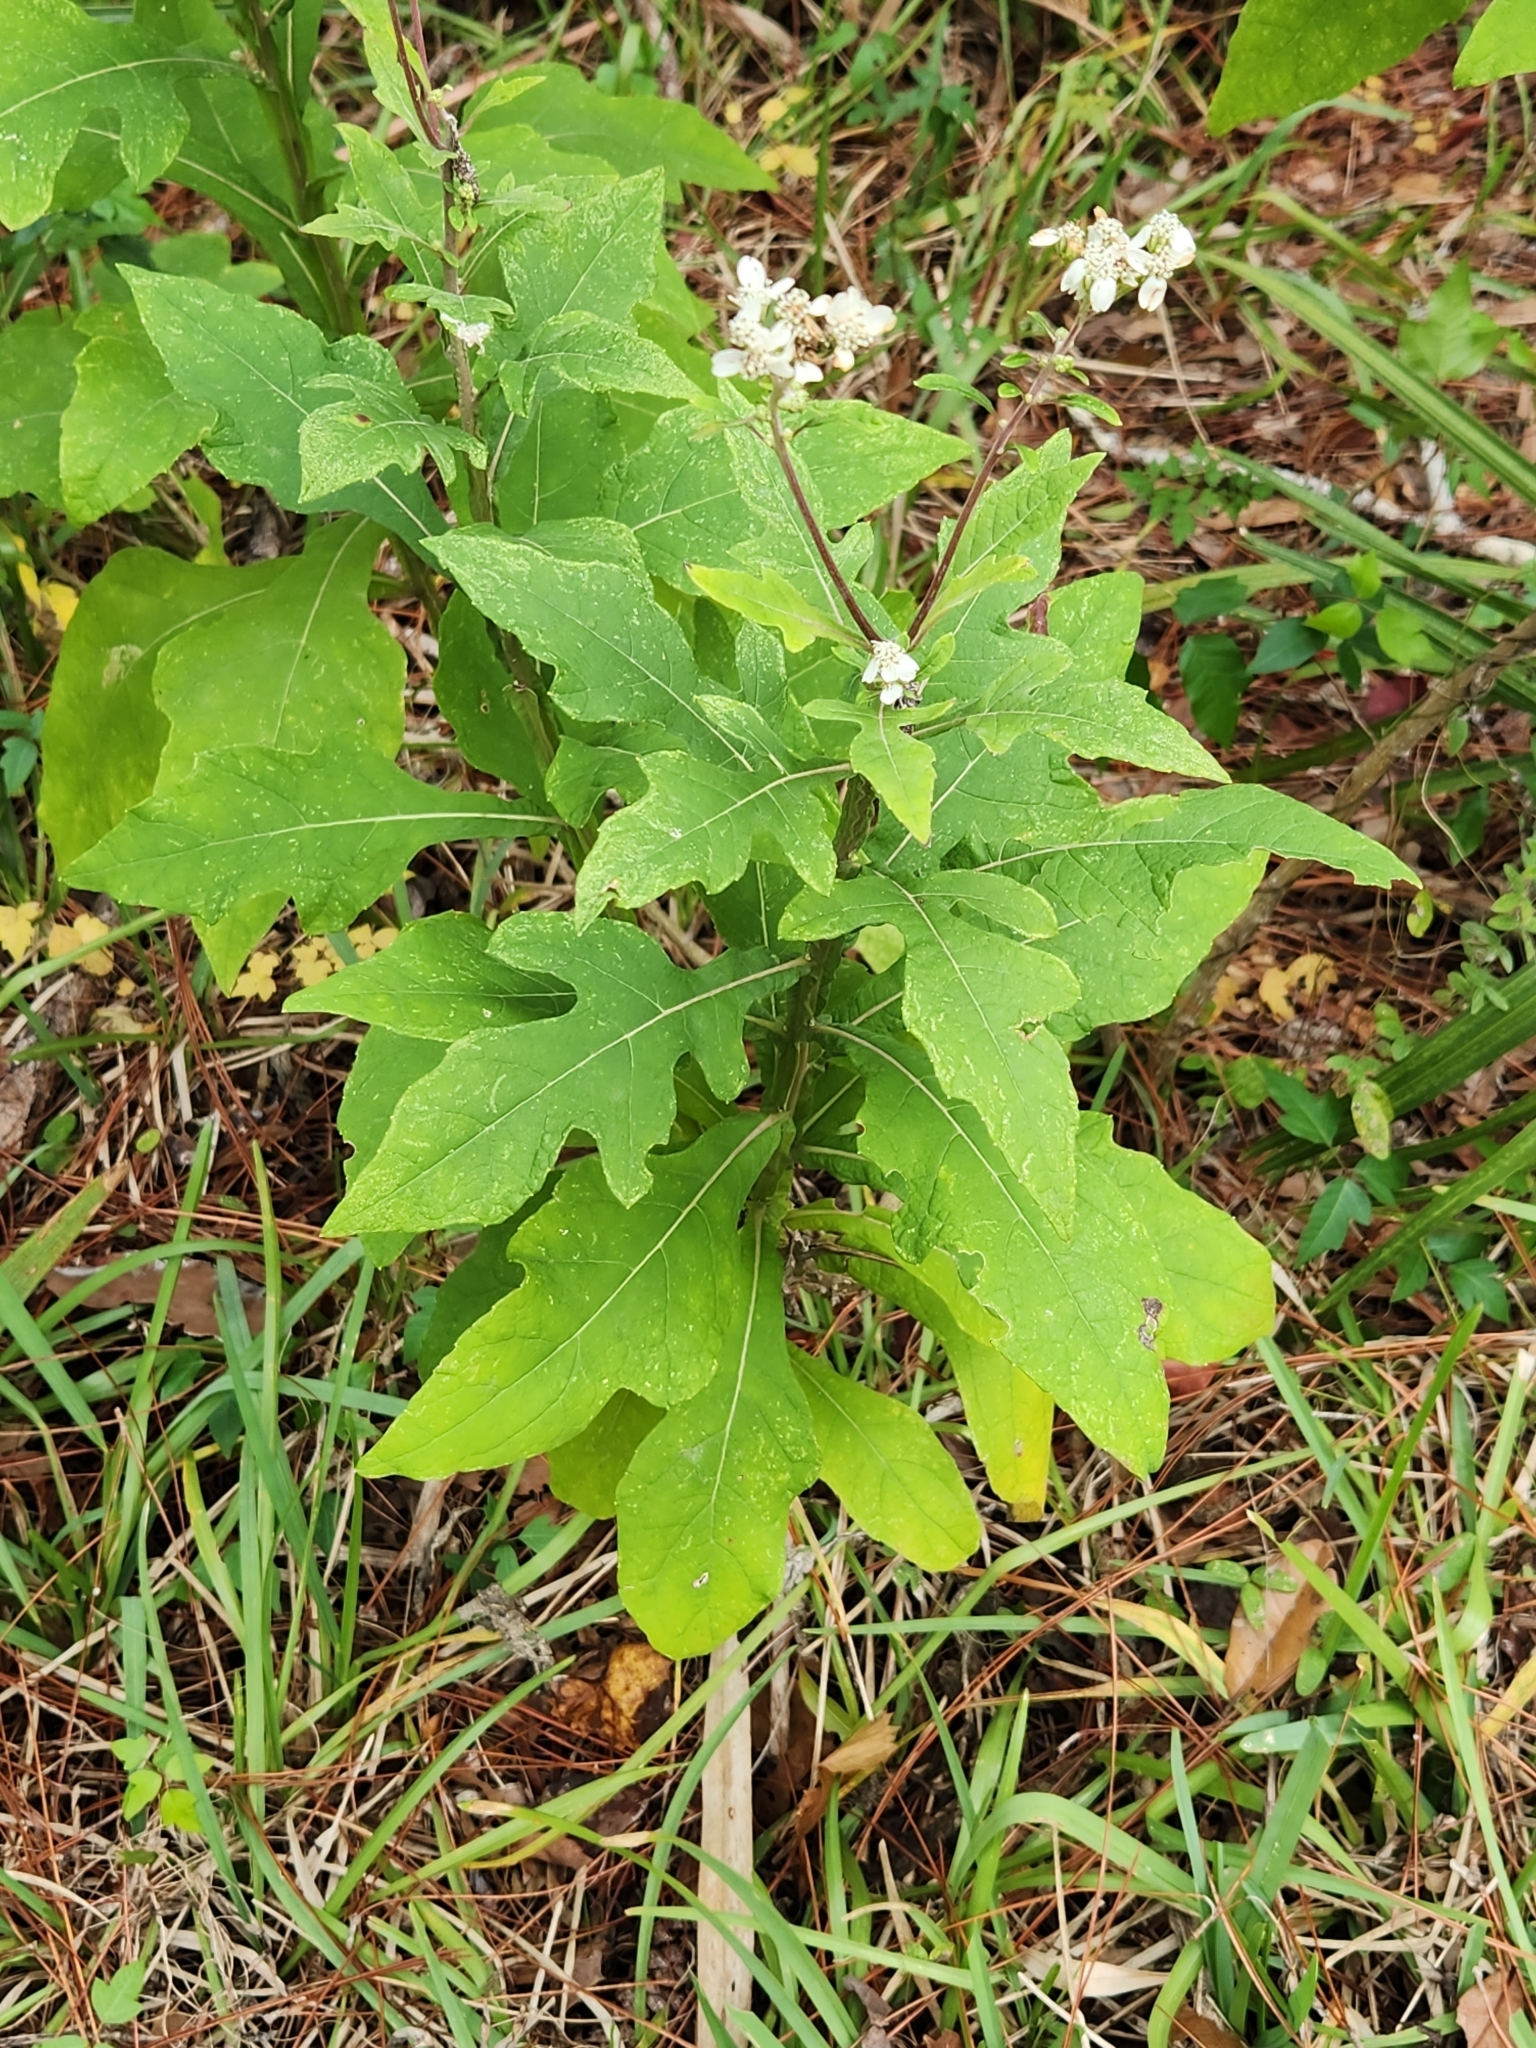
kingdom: Plantae
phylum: Tracheophyta
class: Magnoliopsida
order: Asterales
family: Asteraceae
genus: Verbesina
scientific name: Verbesina virginica
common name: Frostweed
